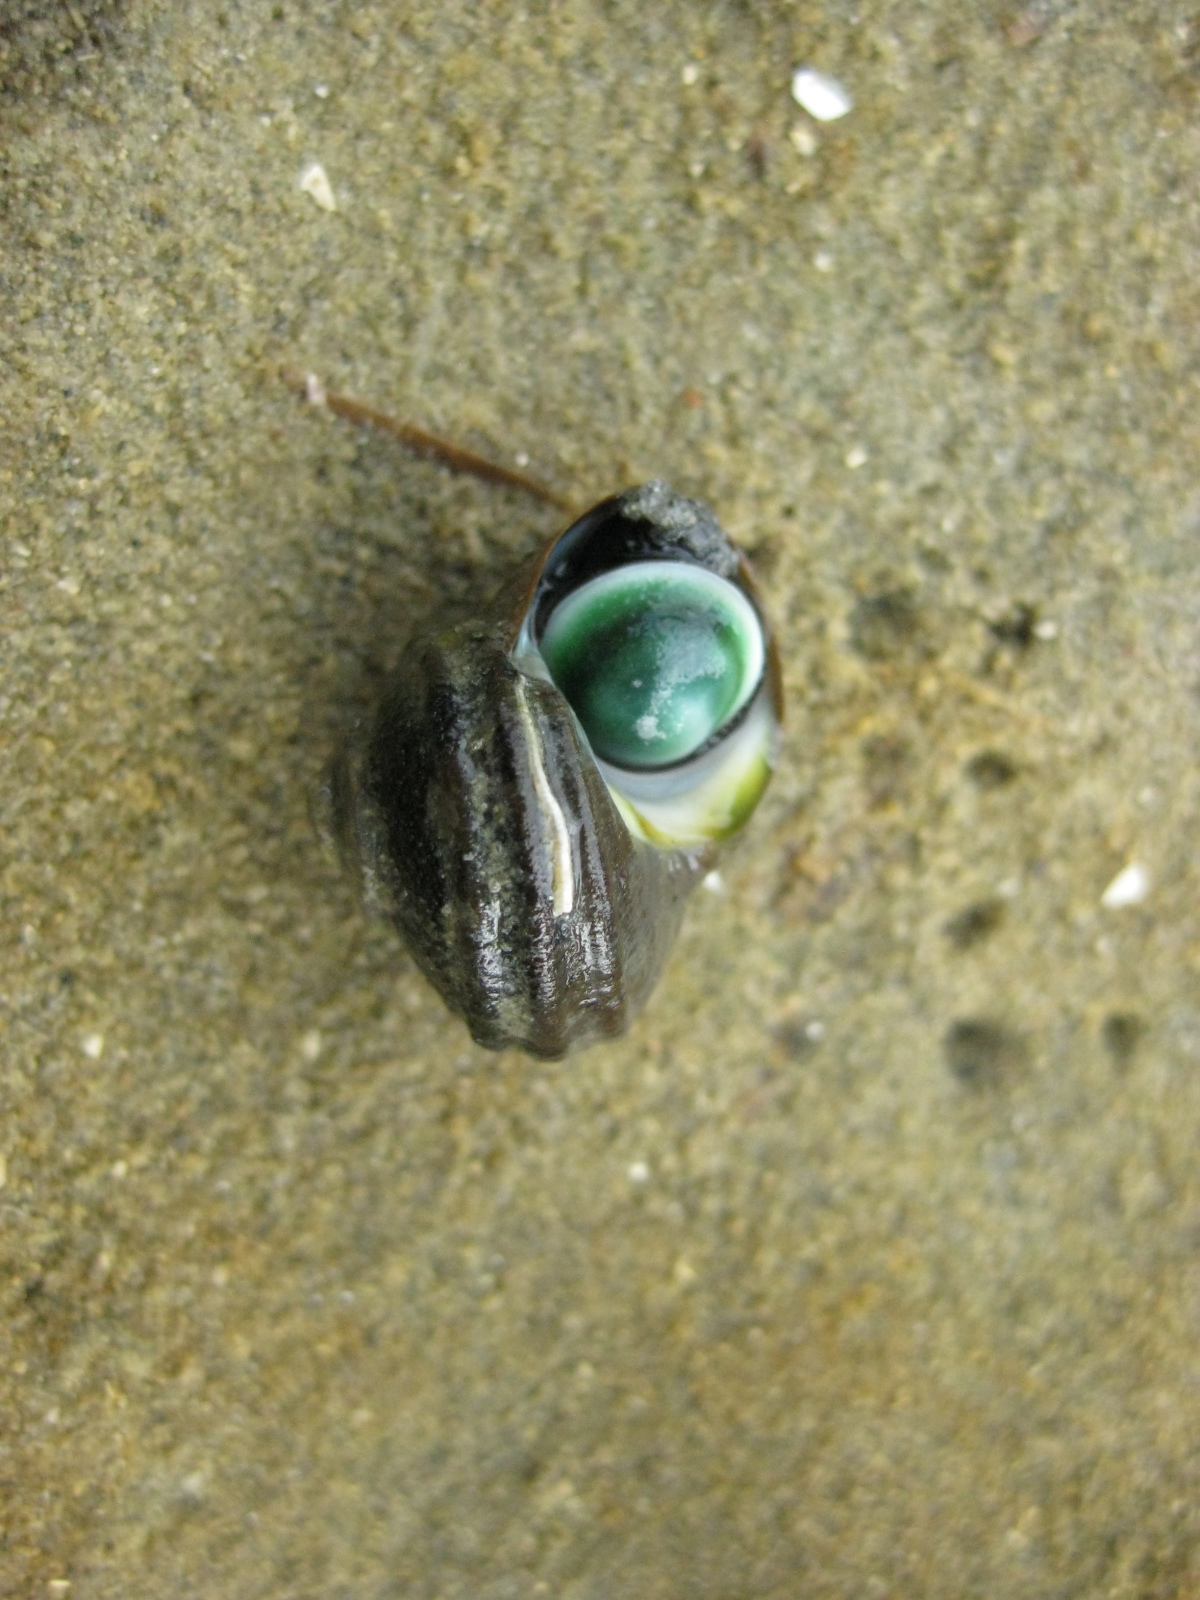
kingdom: Animalia
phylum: Mollusca
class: Gastropoda
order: Trochida
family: Turbinidae
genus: Lunella
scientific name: Lunella smaragda
